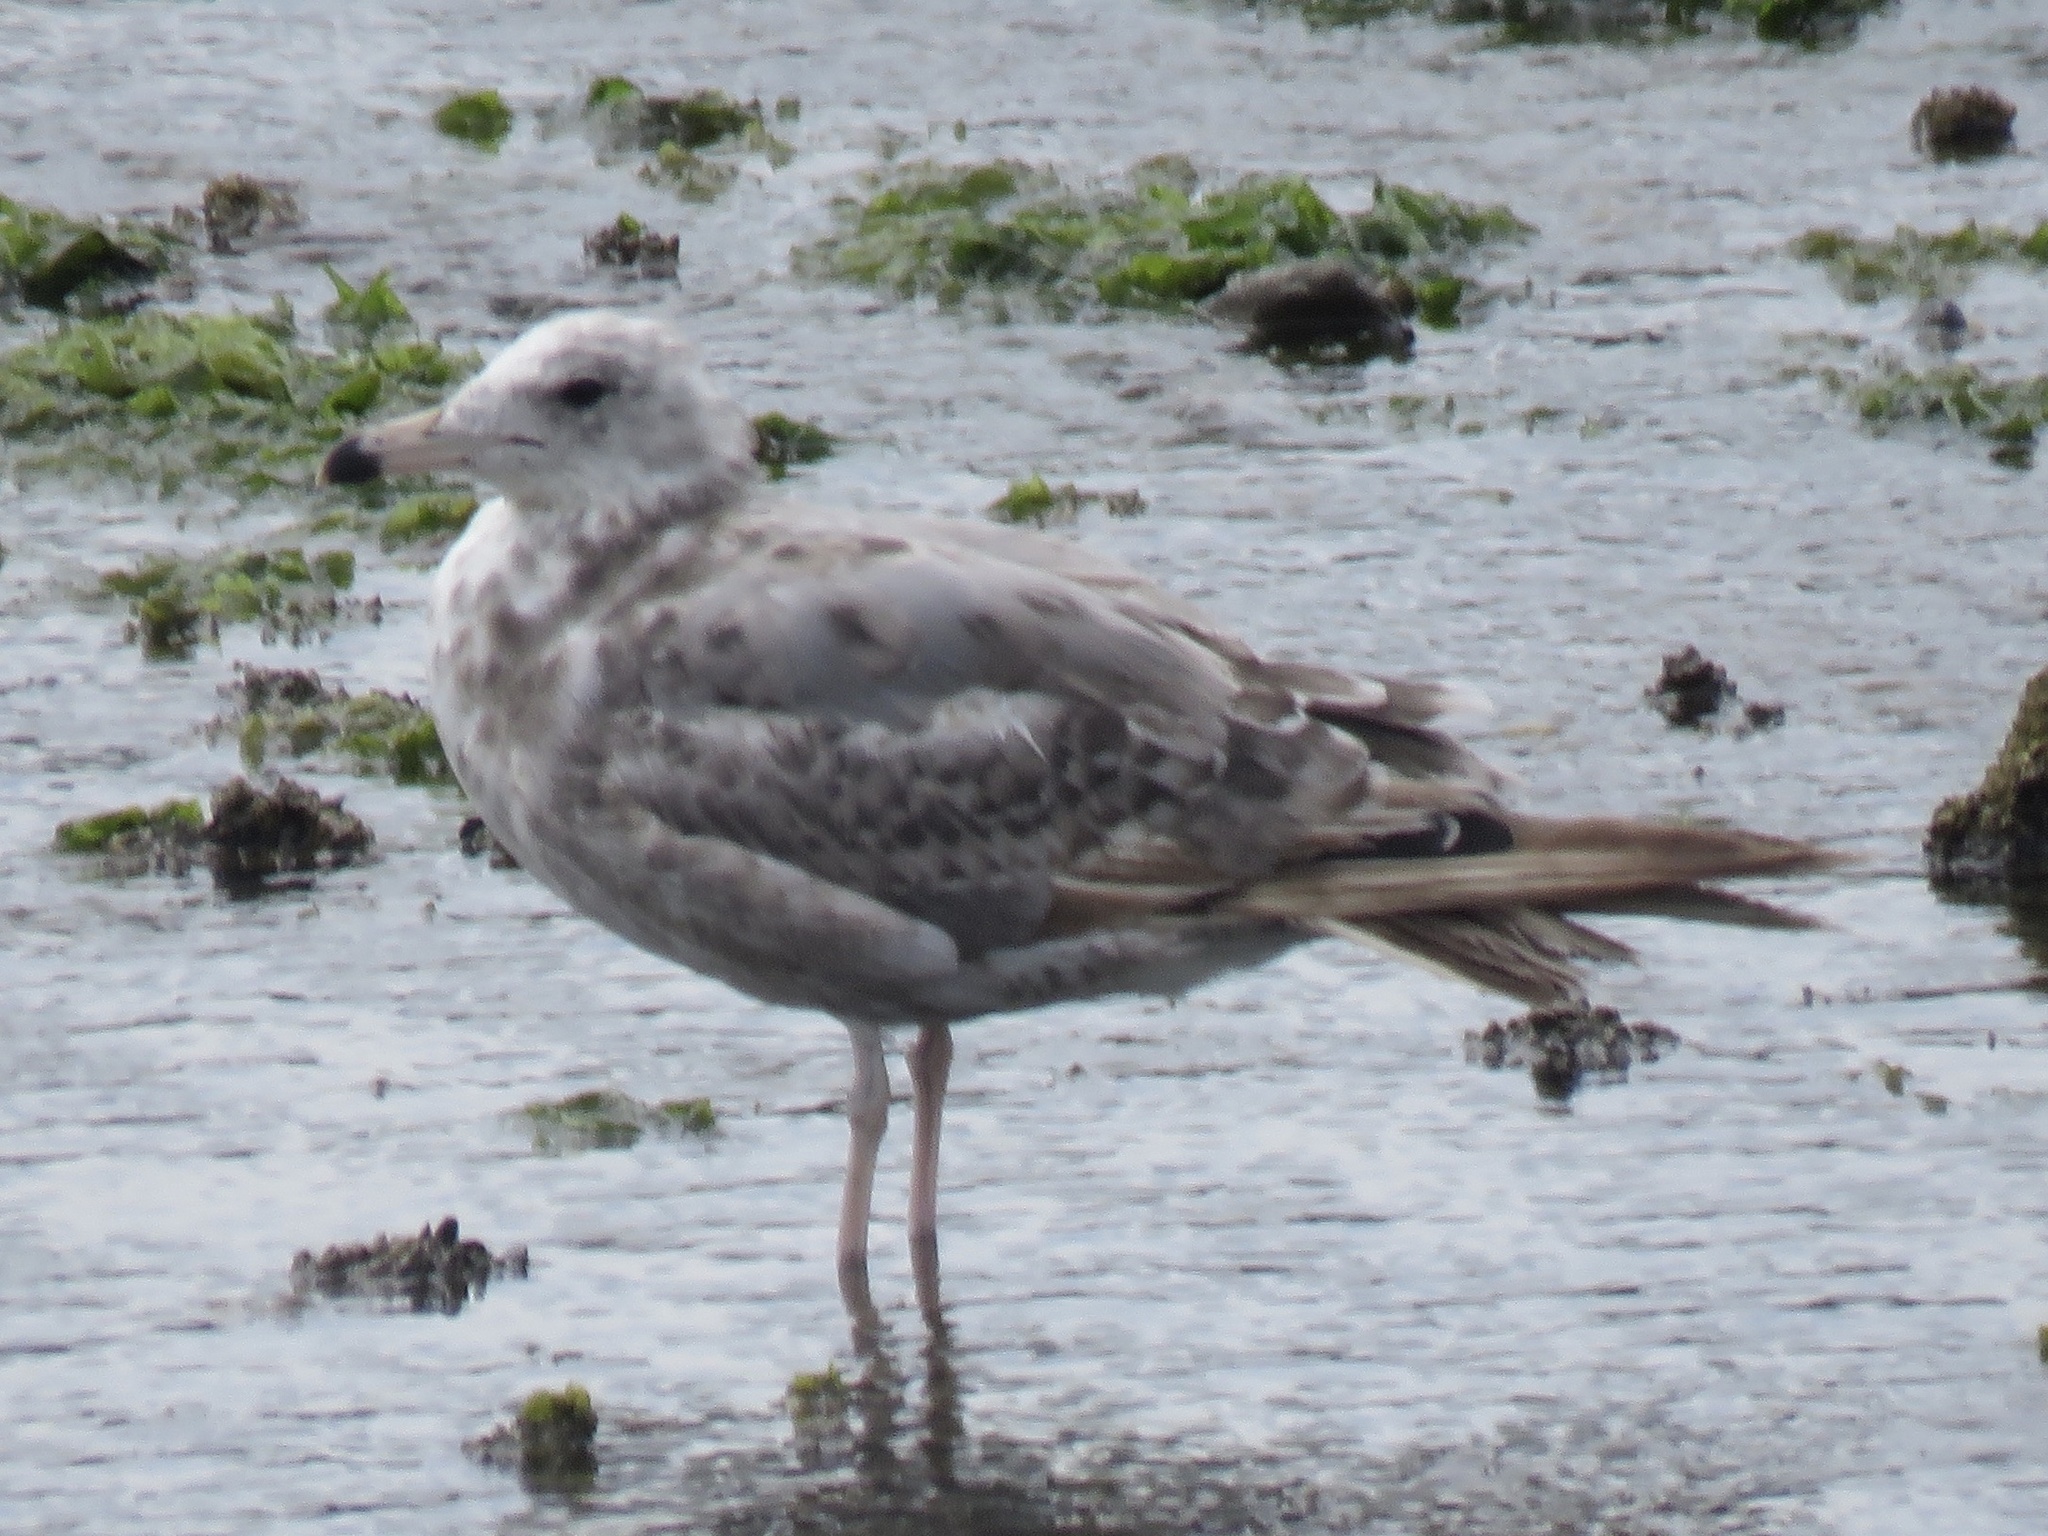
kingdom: Animalia
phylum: Chordata
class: Aves
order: Charadriiformes
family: Laridae
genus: Larus
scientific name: Larus californicus
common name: California gull
